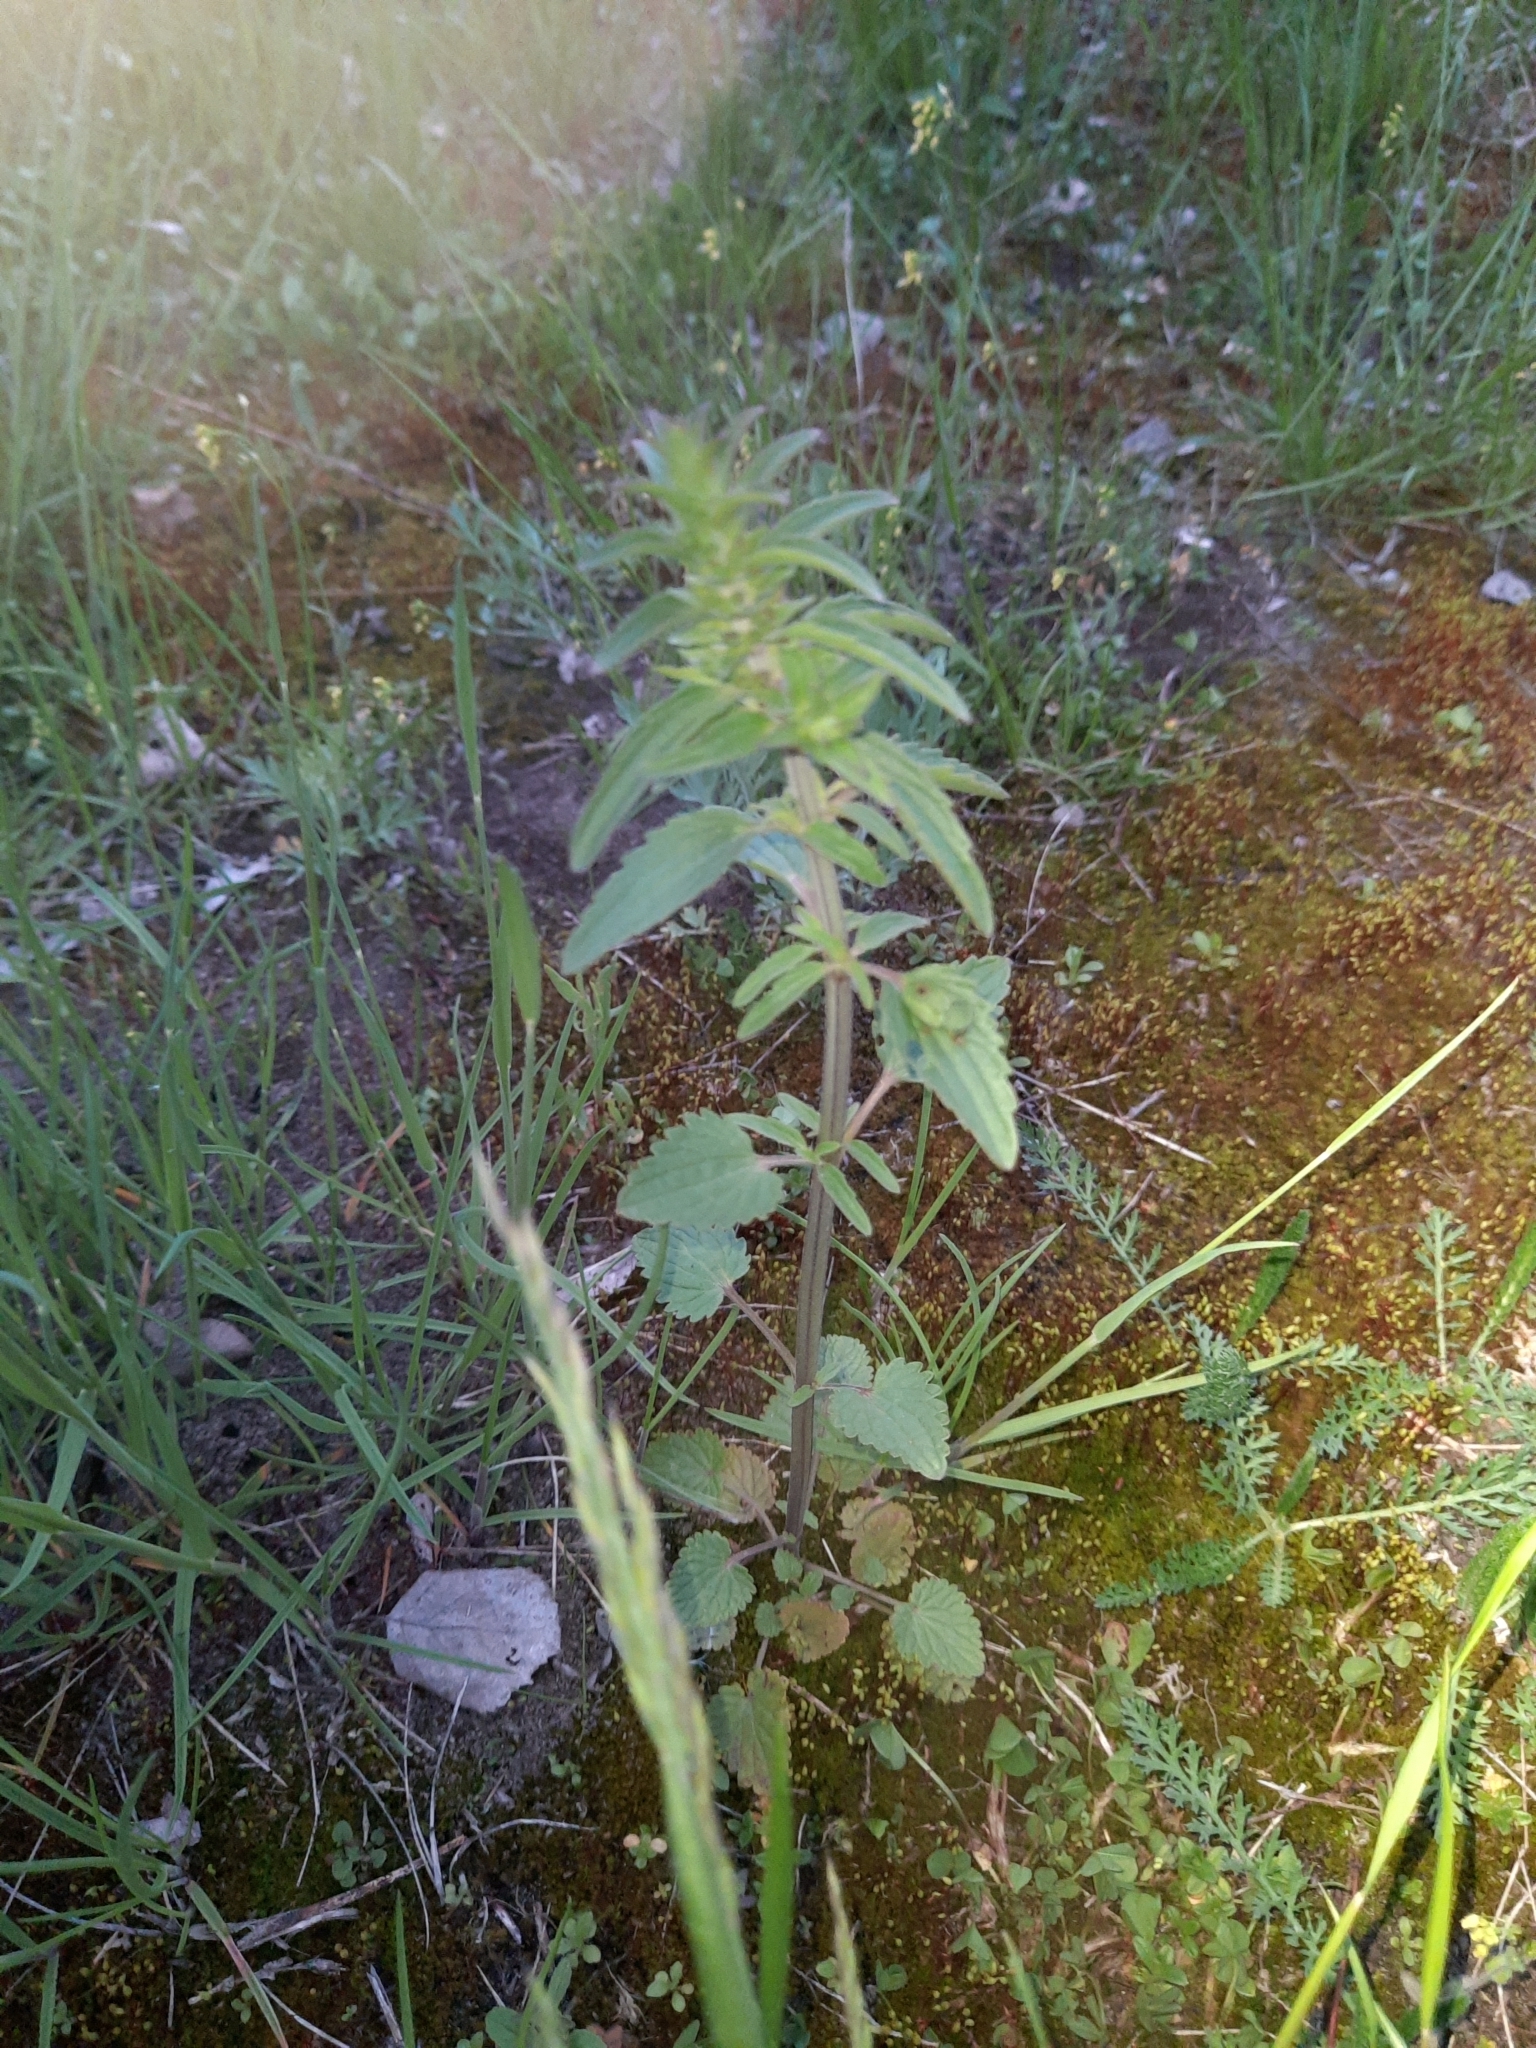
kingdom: Plantae
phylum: Tracheophyta
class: Magnoliopsida
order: Lamiales
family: Lamiaceae
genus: Dracocephalum
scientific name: Dracocephalum thymiflorum
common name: Thymeleaf dragonhead
